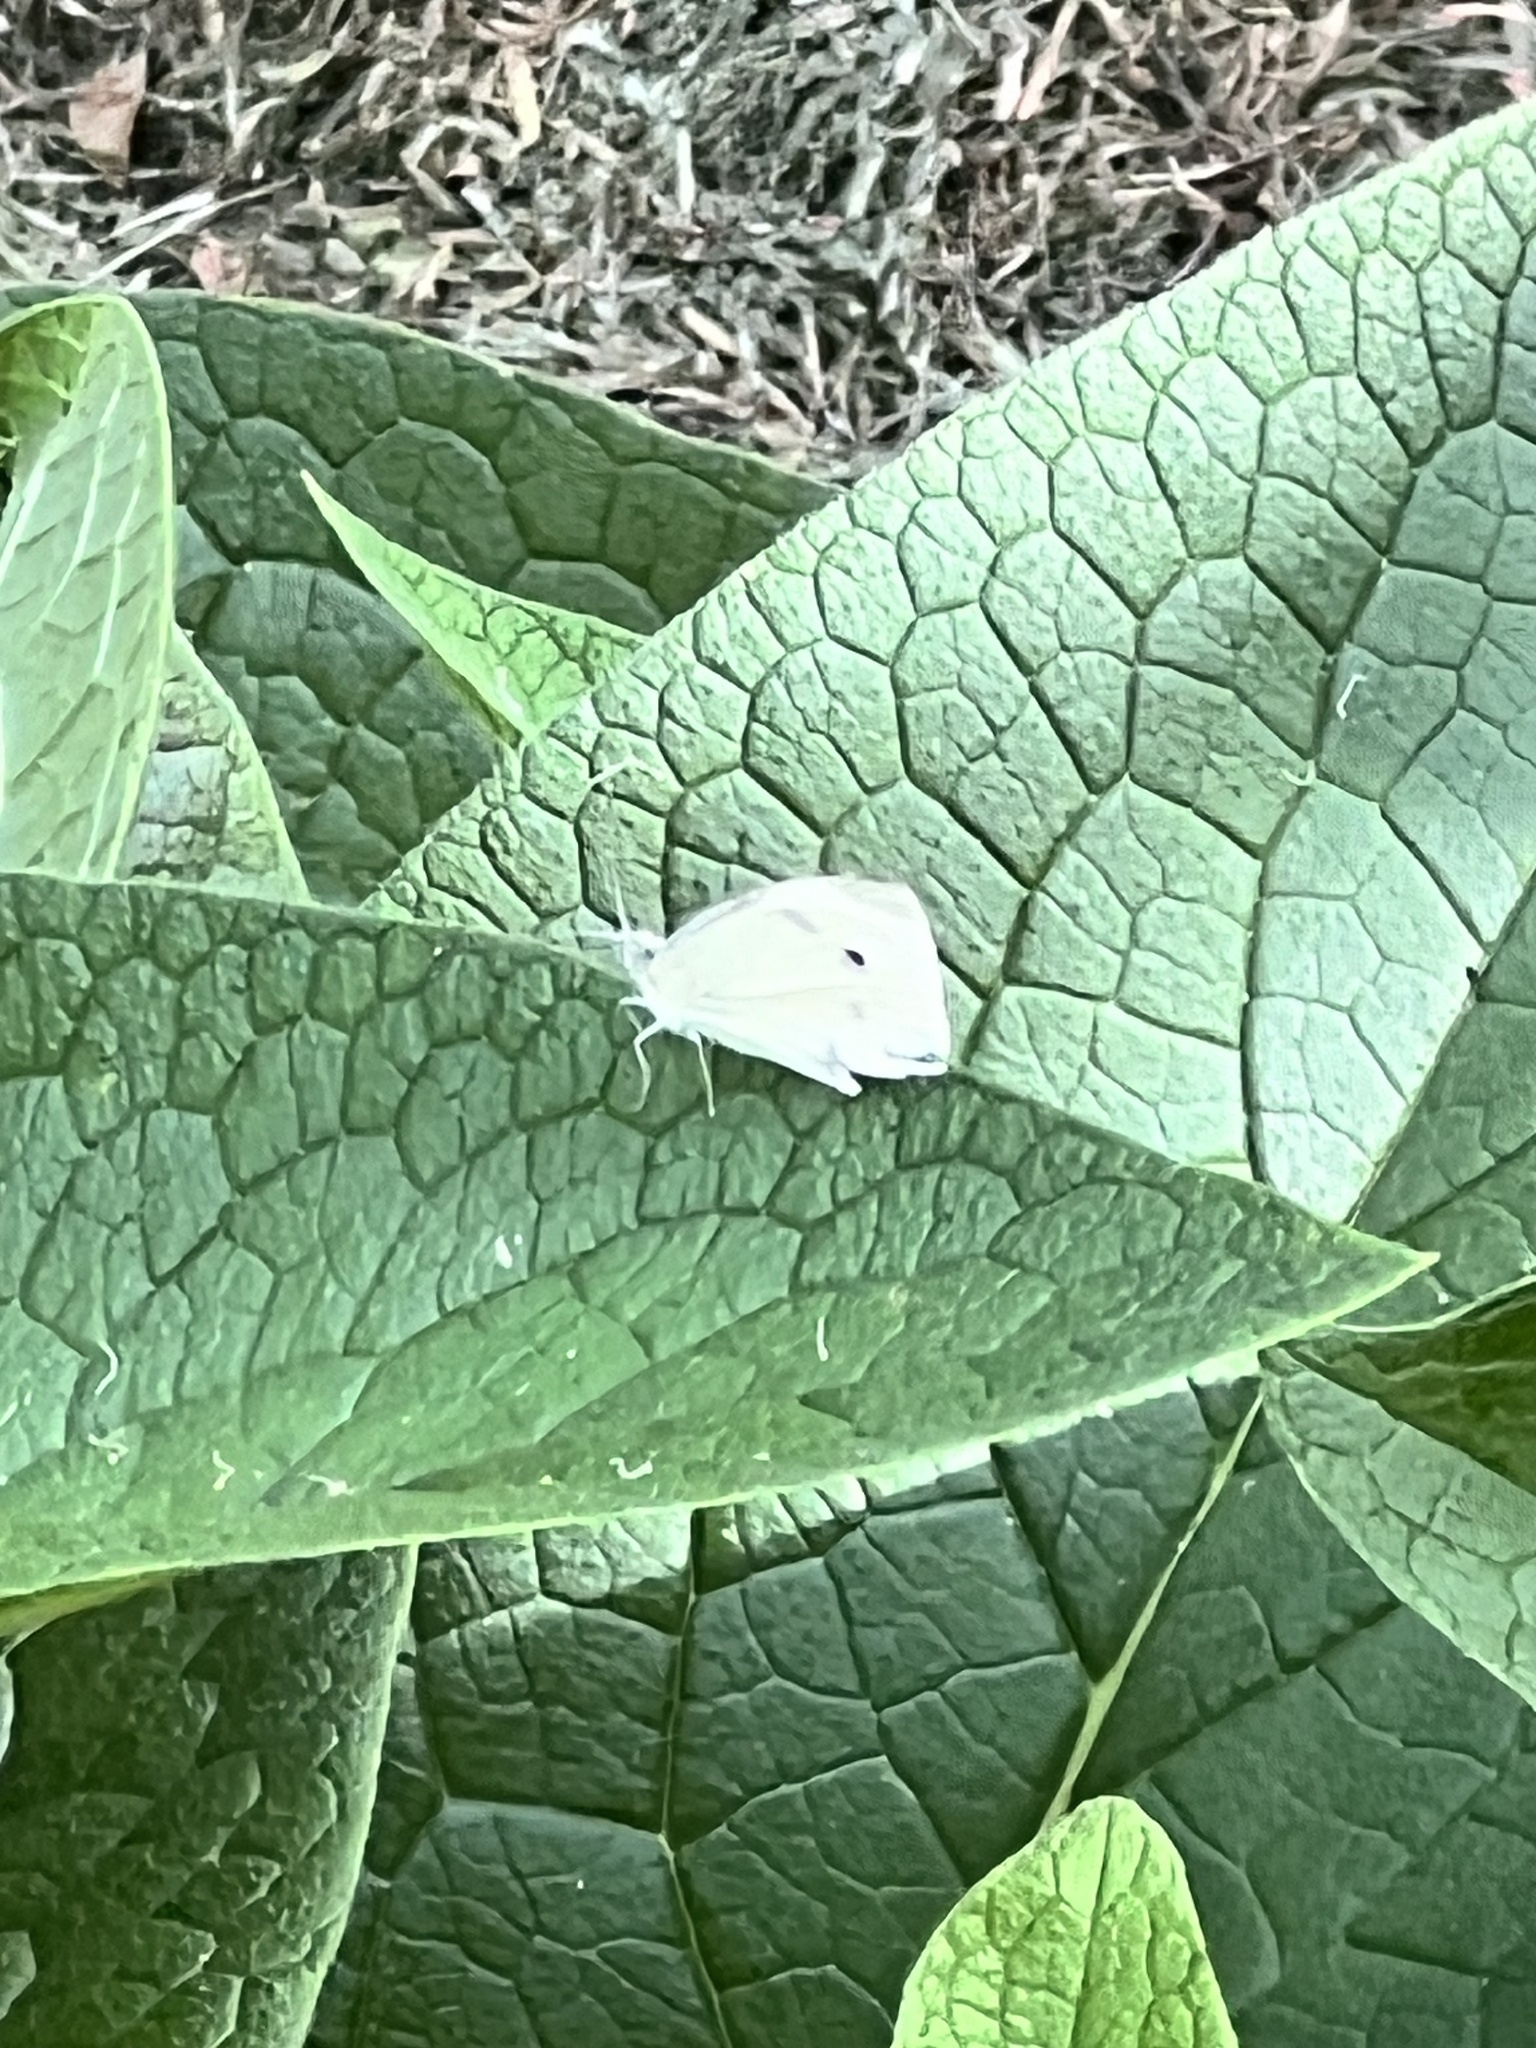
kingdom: Animalia
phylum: Arthropoda
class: Insecta
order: Lepidoptera
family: Pieridae
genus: Pieris
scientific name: Pieris rapae
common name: Small white
